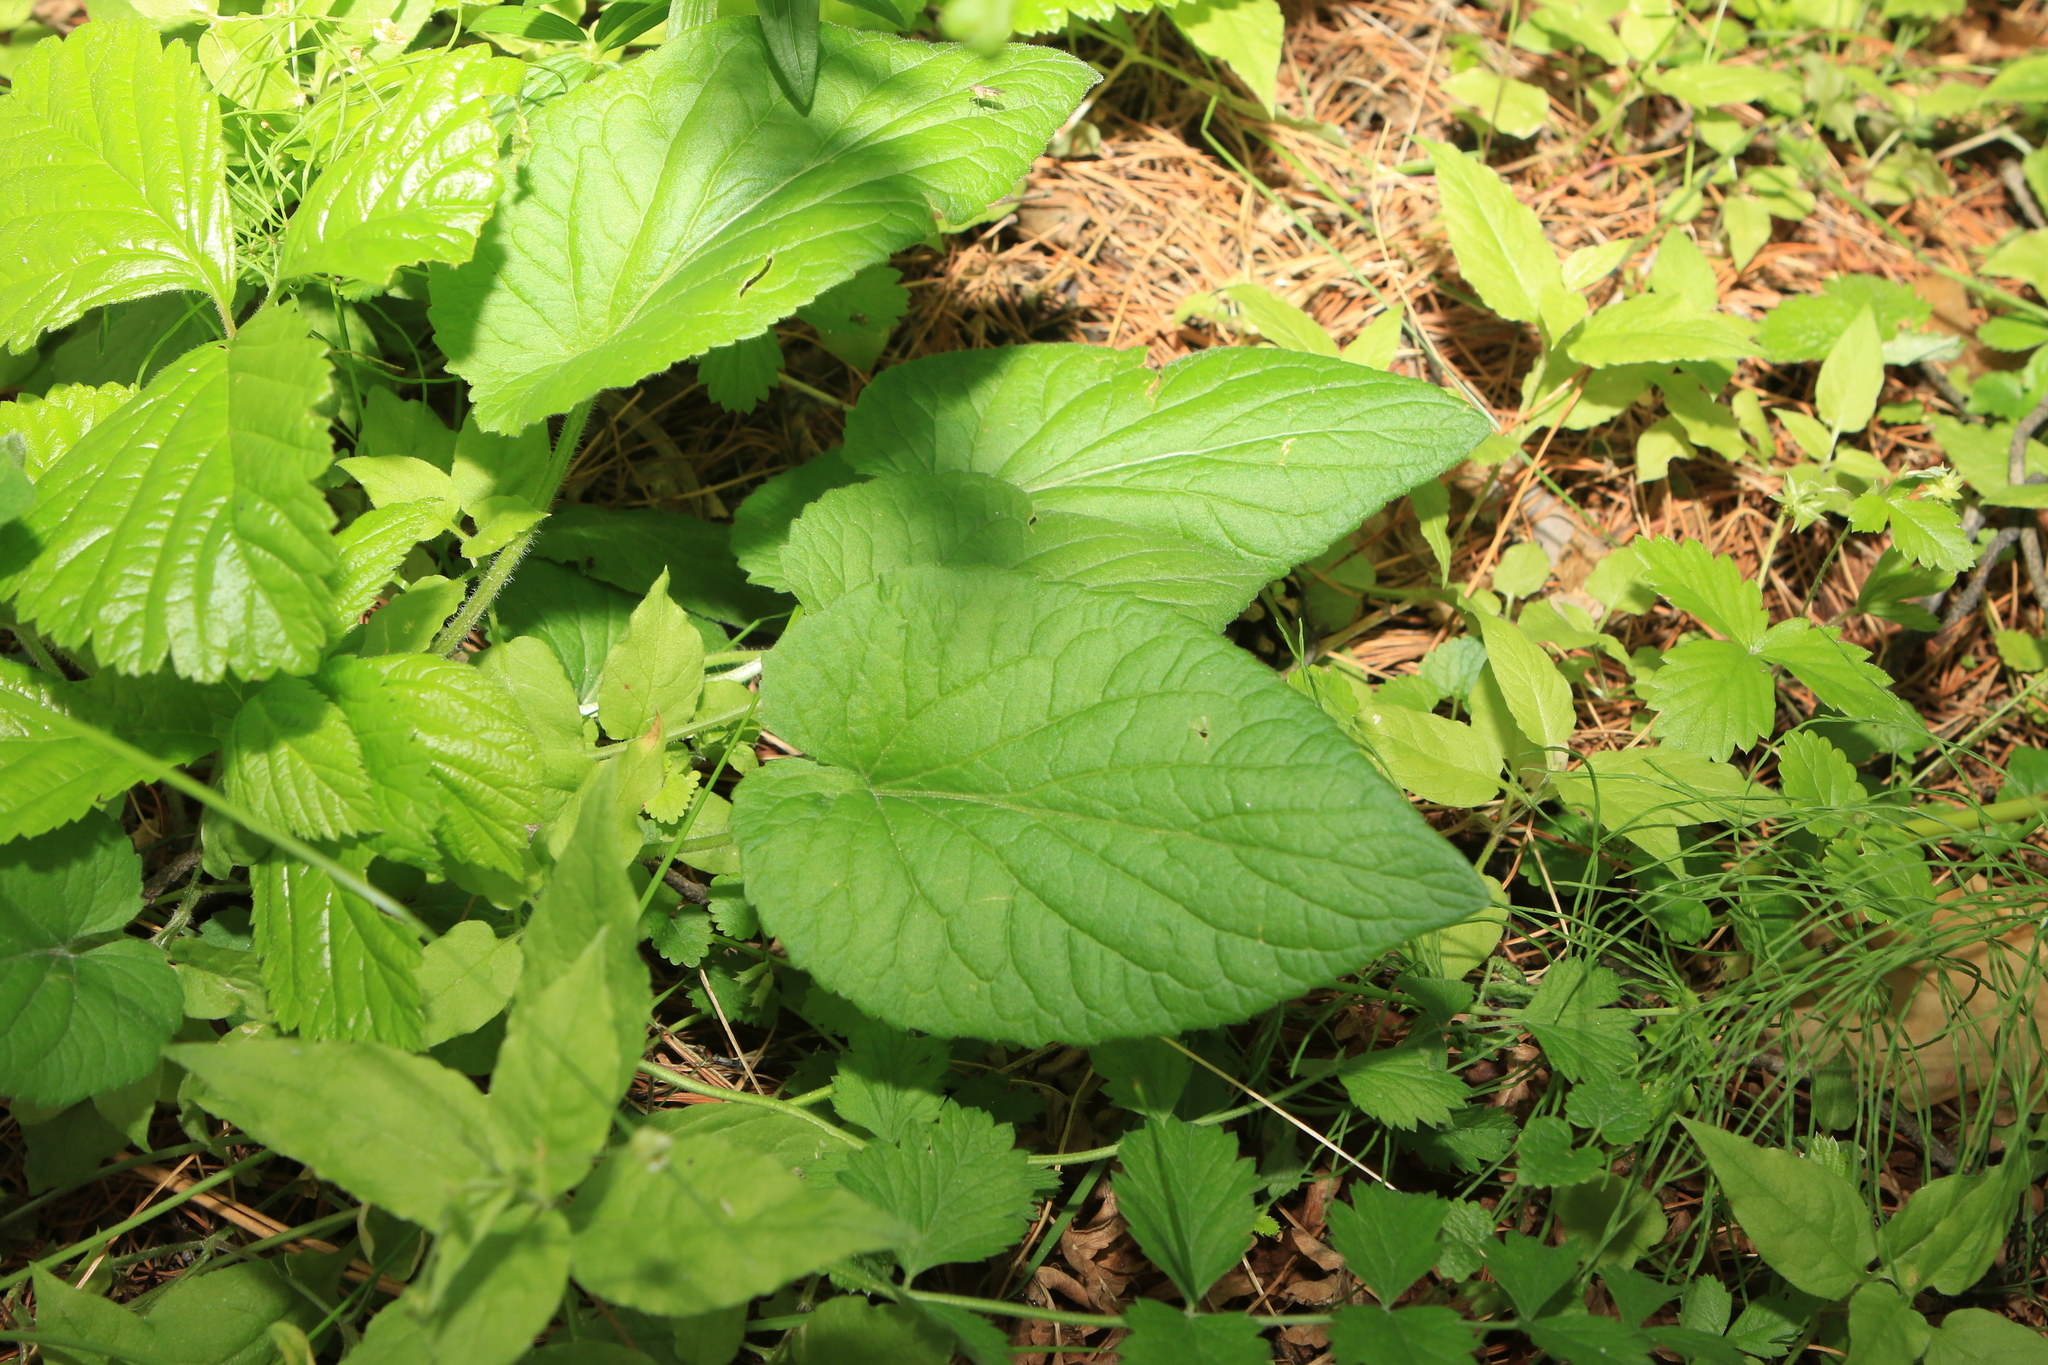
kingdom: Plantae
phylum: Tracheophyta
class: Magnoliopsida
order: Malpighiales
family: Violaceae
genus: Viola
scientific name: Viola hirta
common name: Hairy violet
